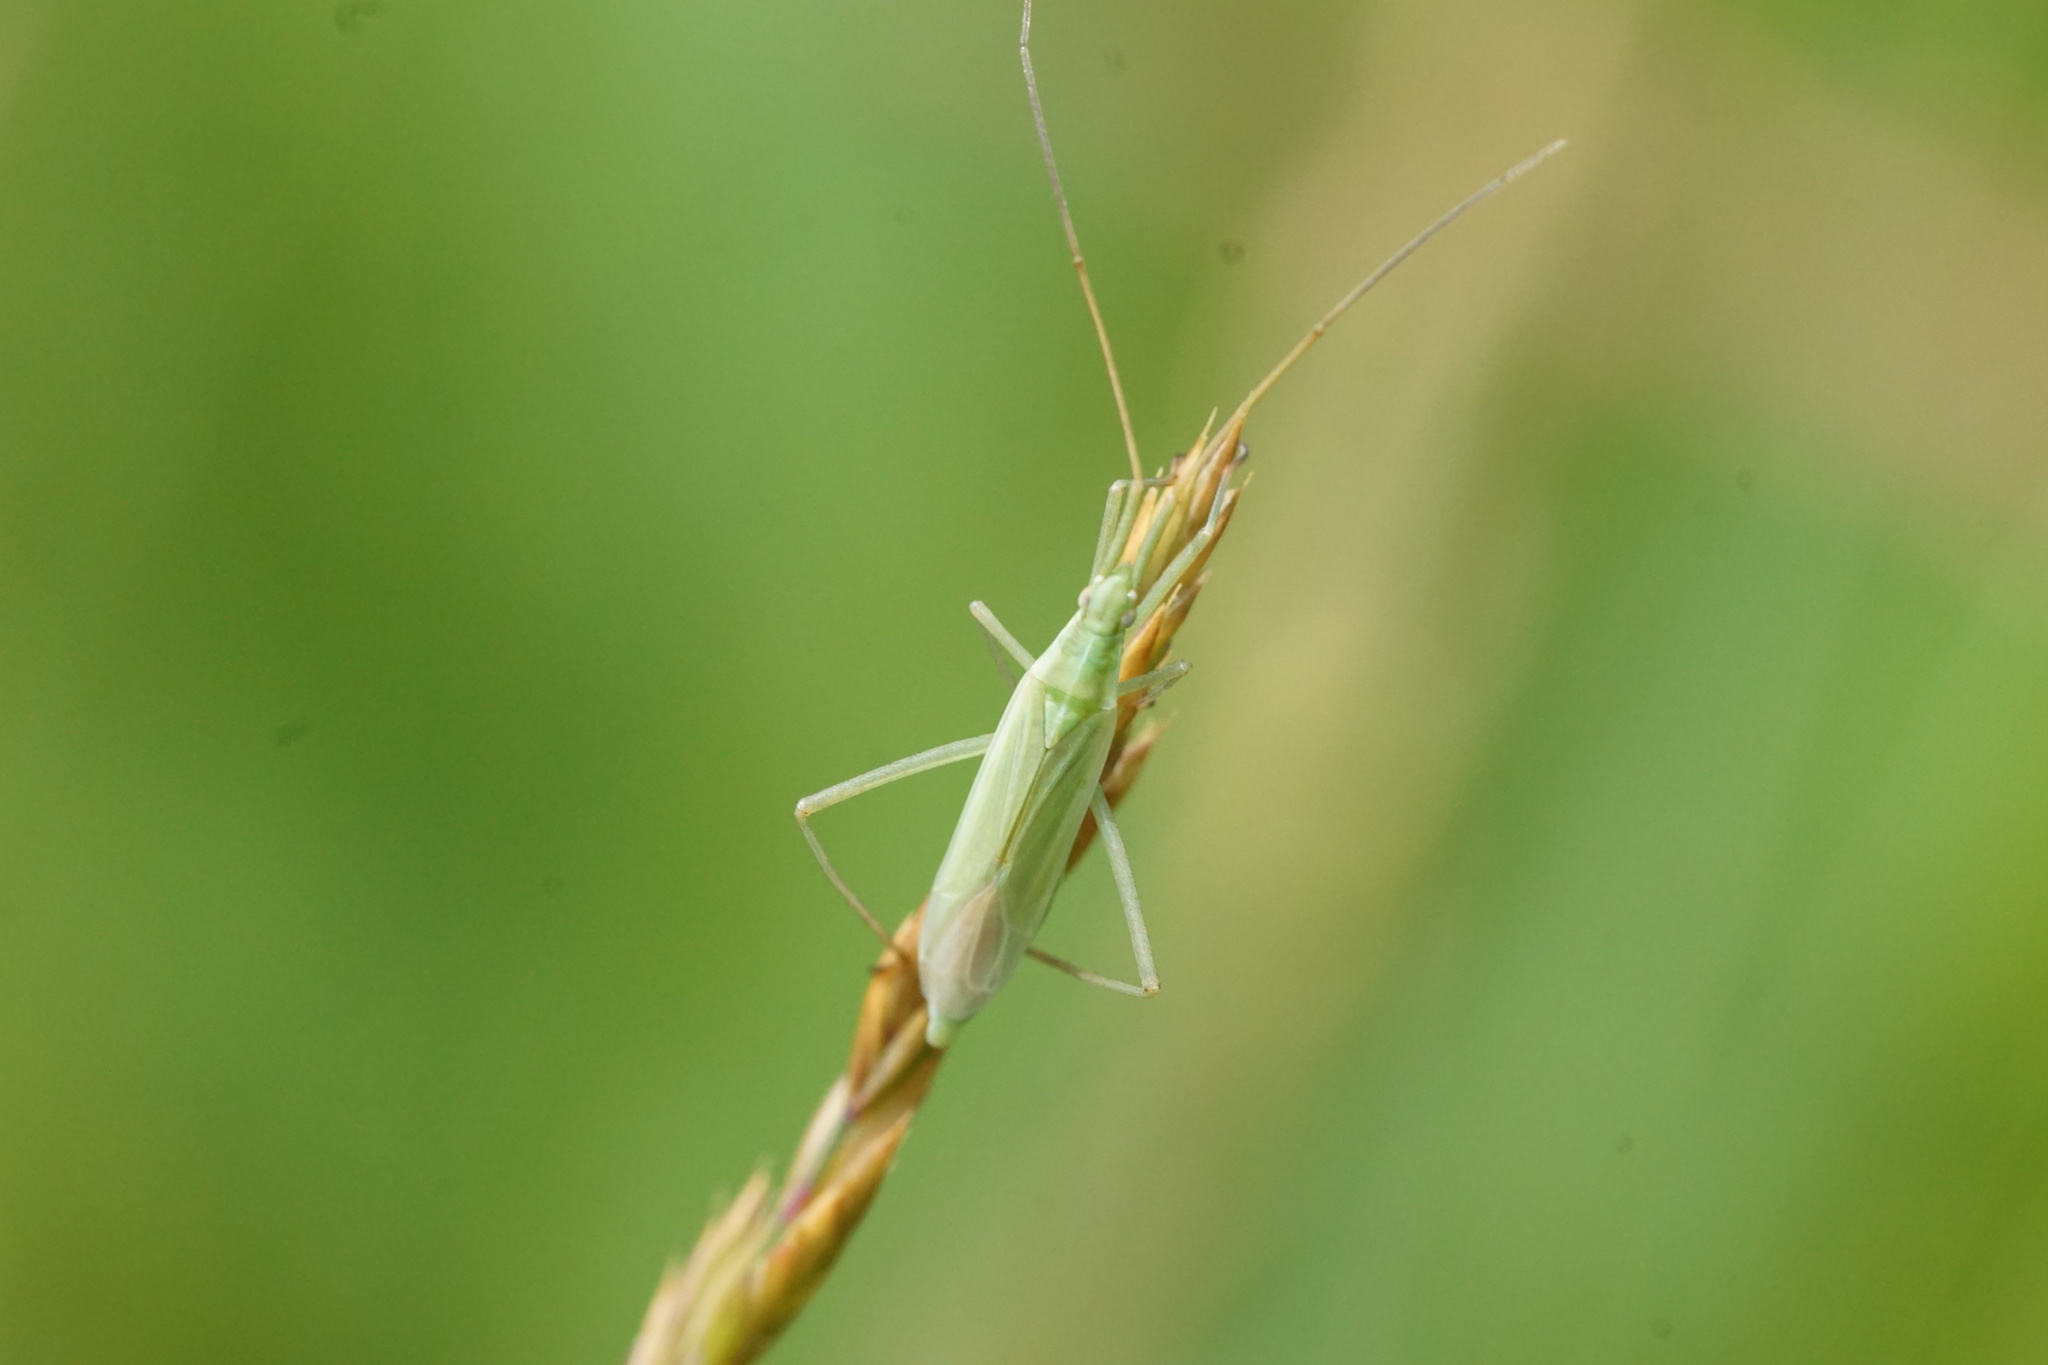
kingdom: Animalia
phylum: Arthropoda
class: Insecta
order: Hemiptera
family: Miridae
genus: Megaloceroea
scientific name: Megaloceroea recticornis
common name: Plant bug
